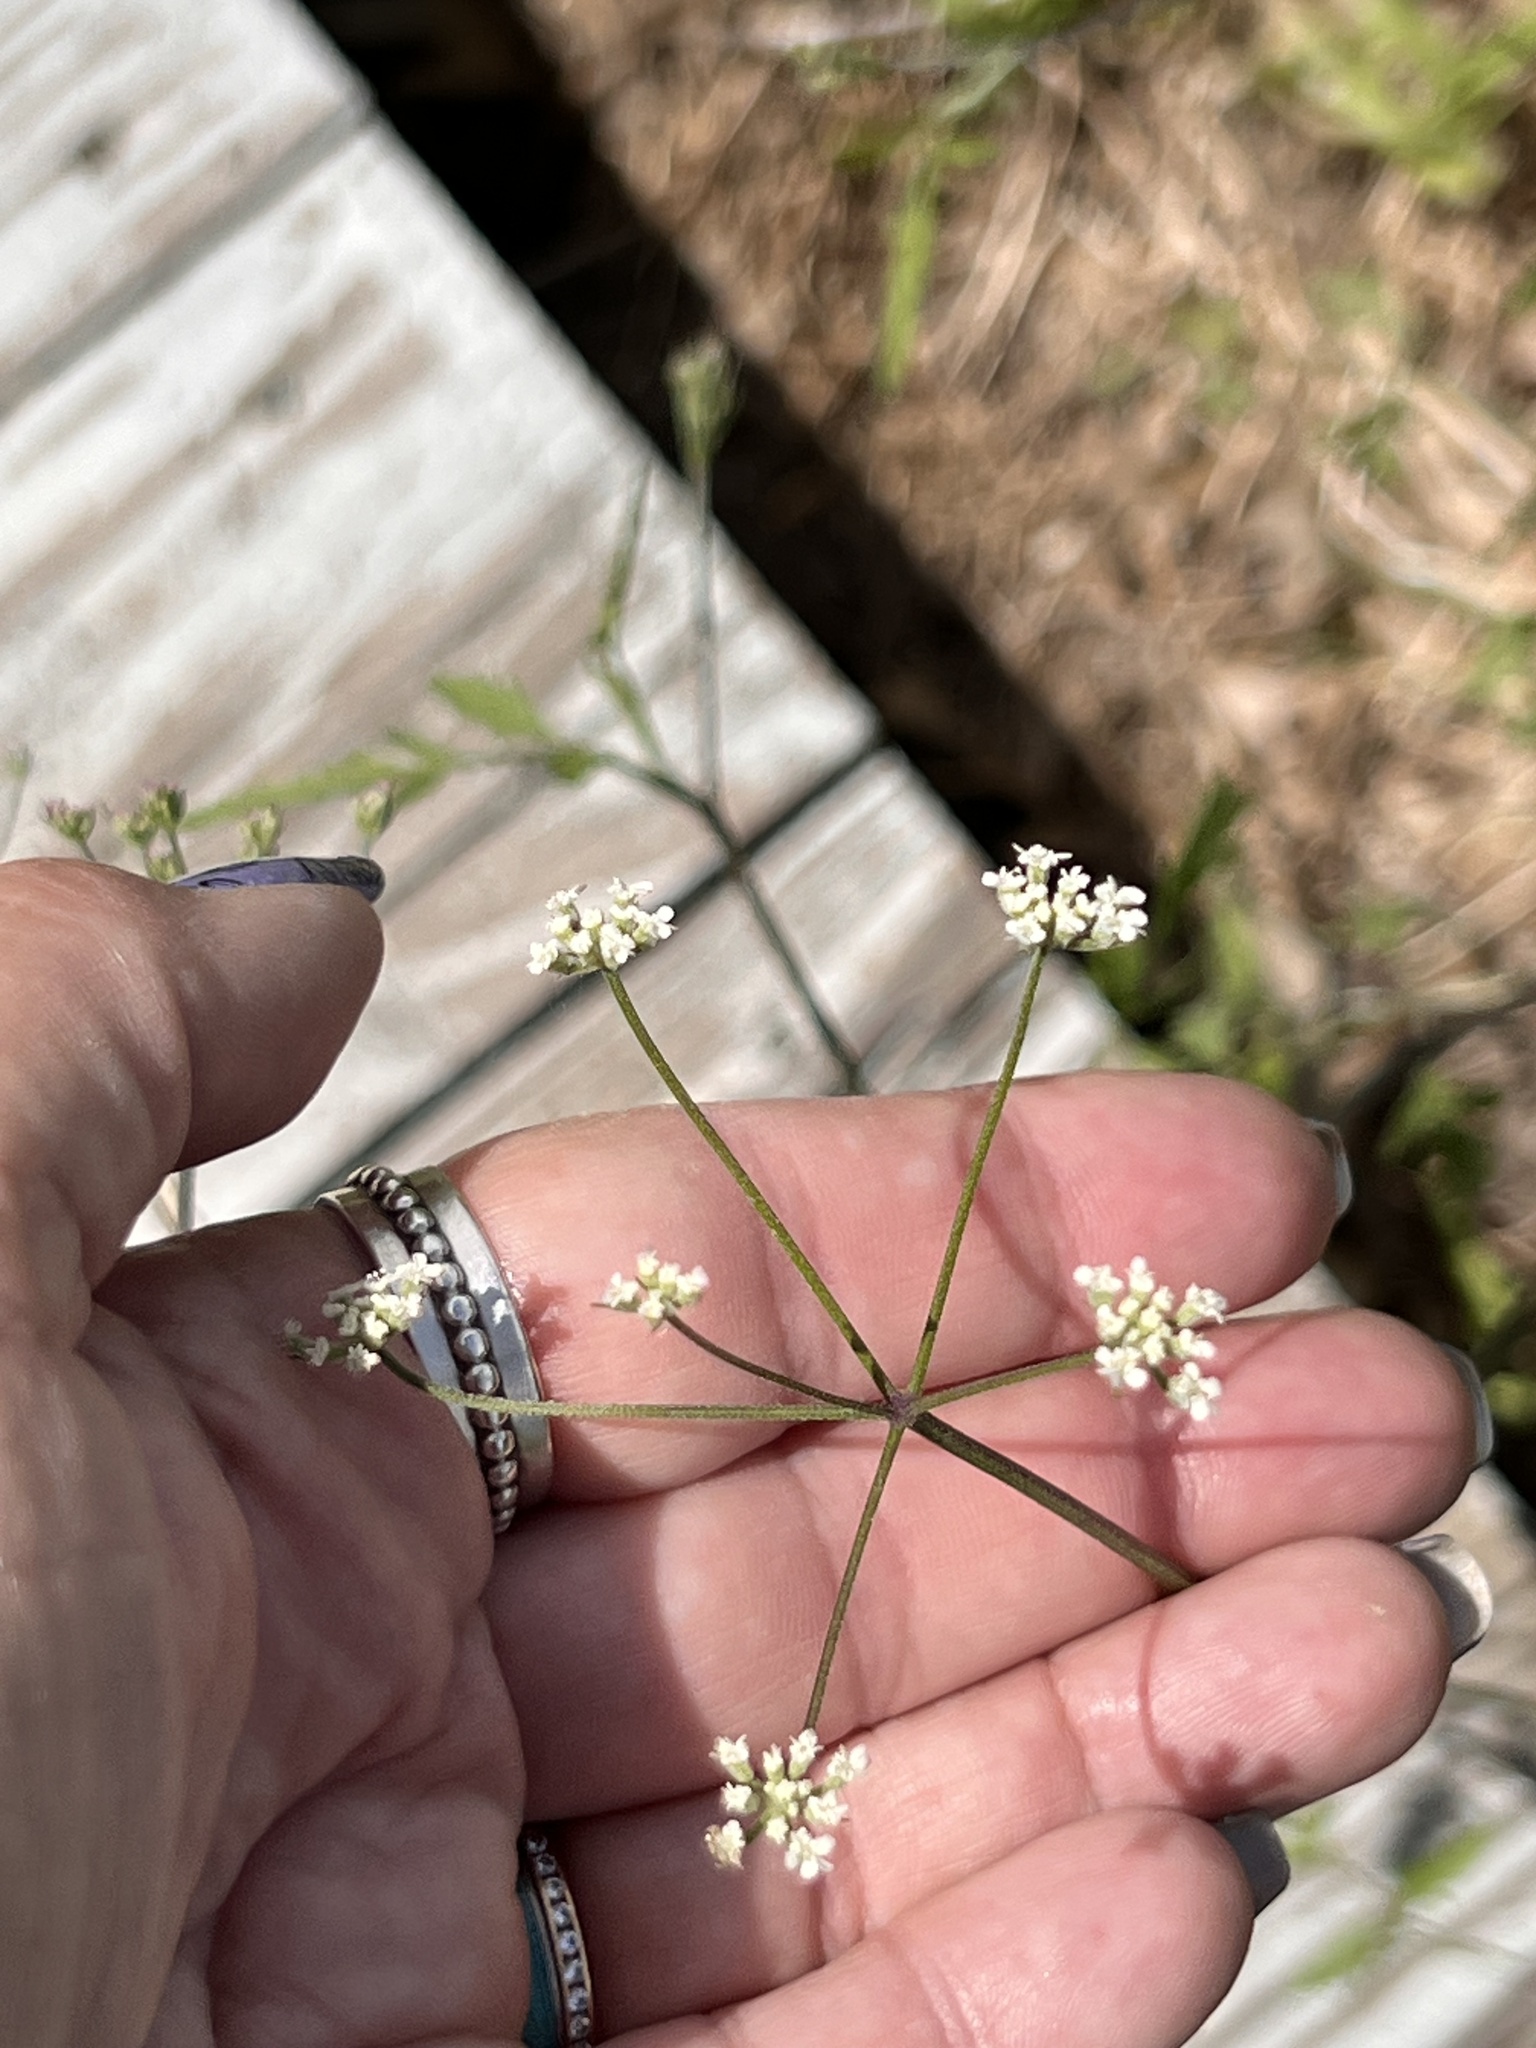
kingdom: Plantae
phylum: Tracheophyta
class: Magnoliopsida
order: Apiales
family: Apiaceae
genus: Torilis
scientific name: Torilis arvensis
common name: Spreading hedge-parsley
